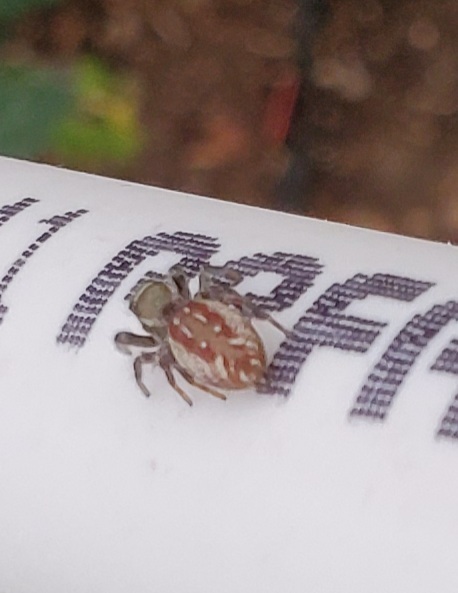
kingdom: Animalia
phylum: Arthropoda
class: Arachnida
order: Araneae
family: Salticidae
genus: Eris
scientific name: Eris militaris
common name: Bronze jumper
